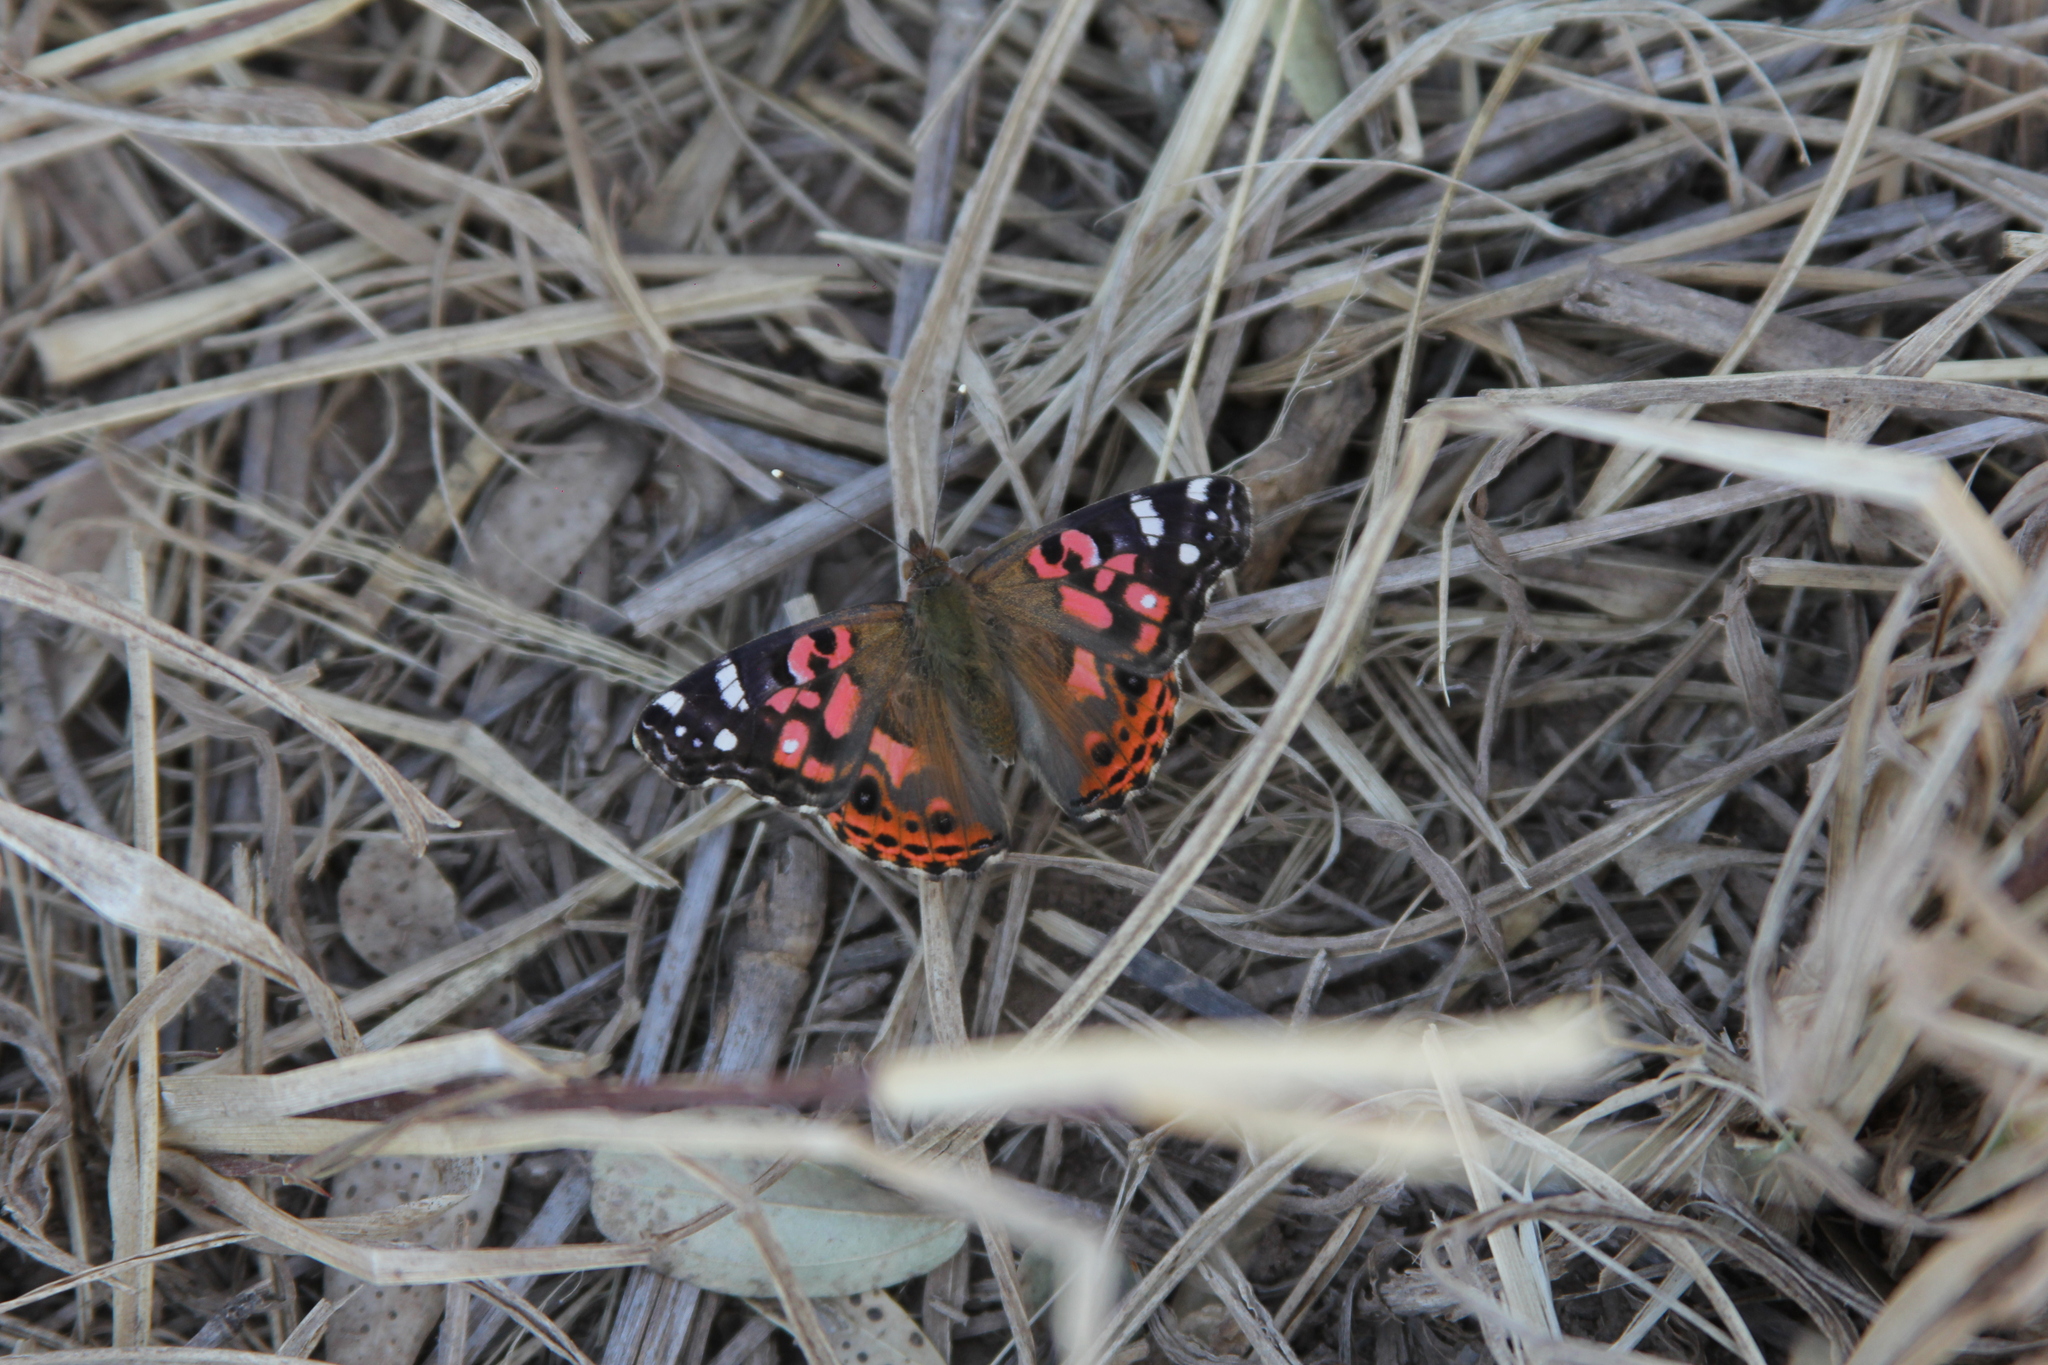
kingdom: Animalia
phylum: Arthropoda
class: Insecta
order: Lepidoptera
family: Nymphalidae
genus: Vanessa
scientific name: Vanessa braziliensis
